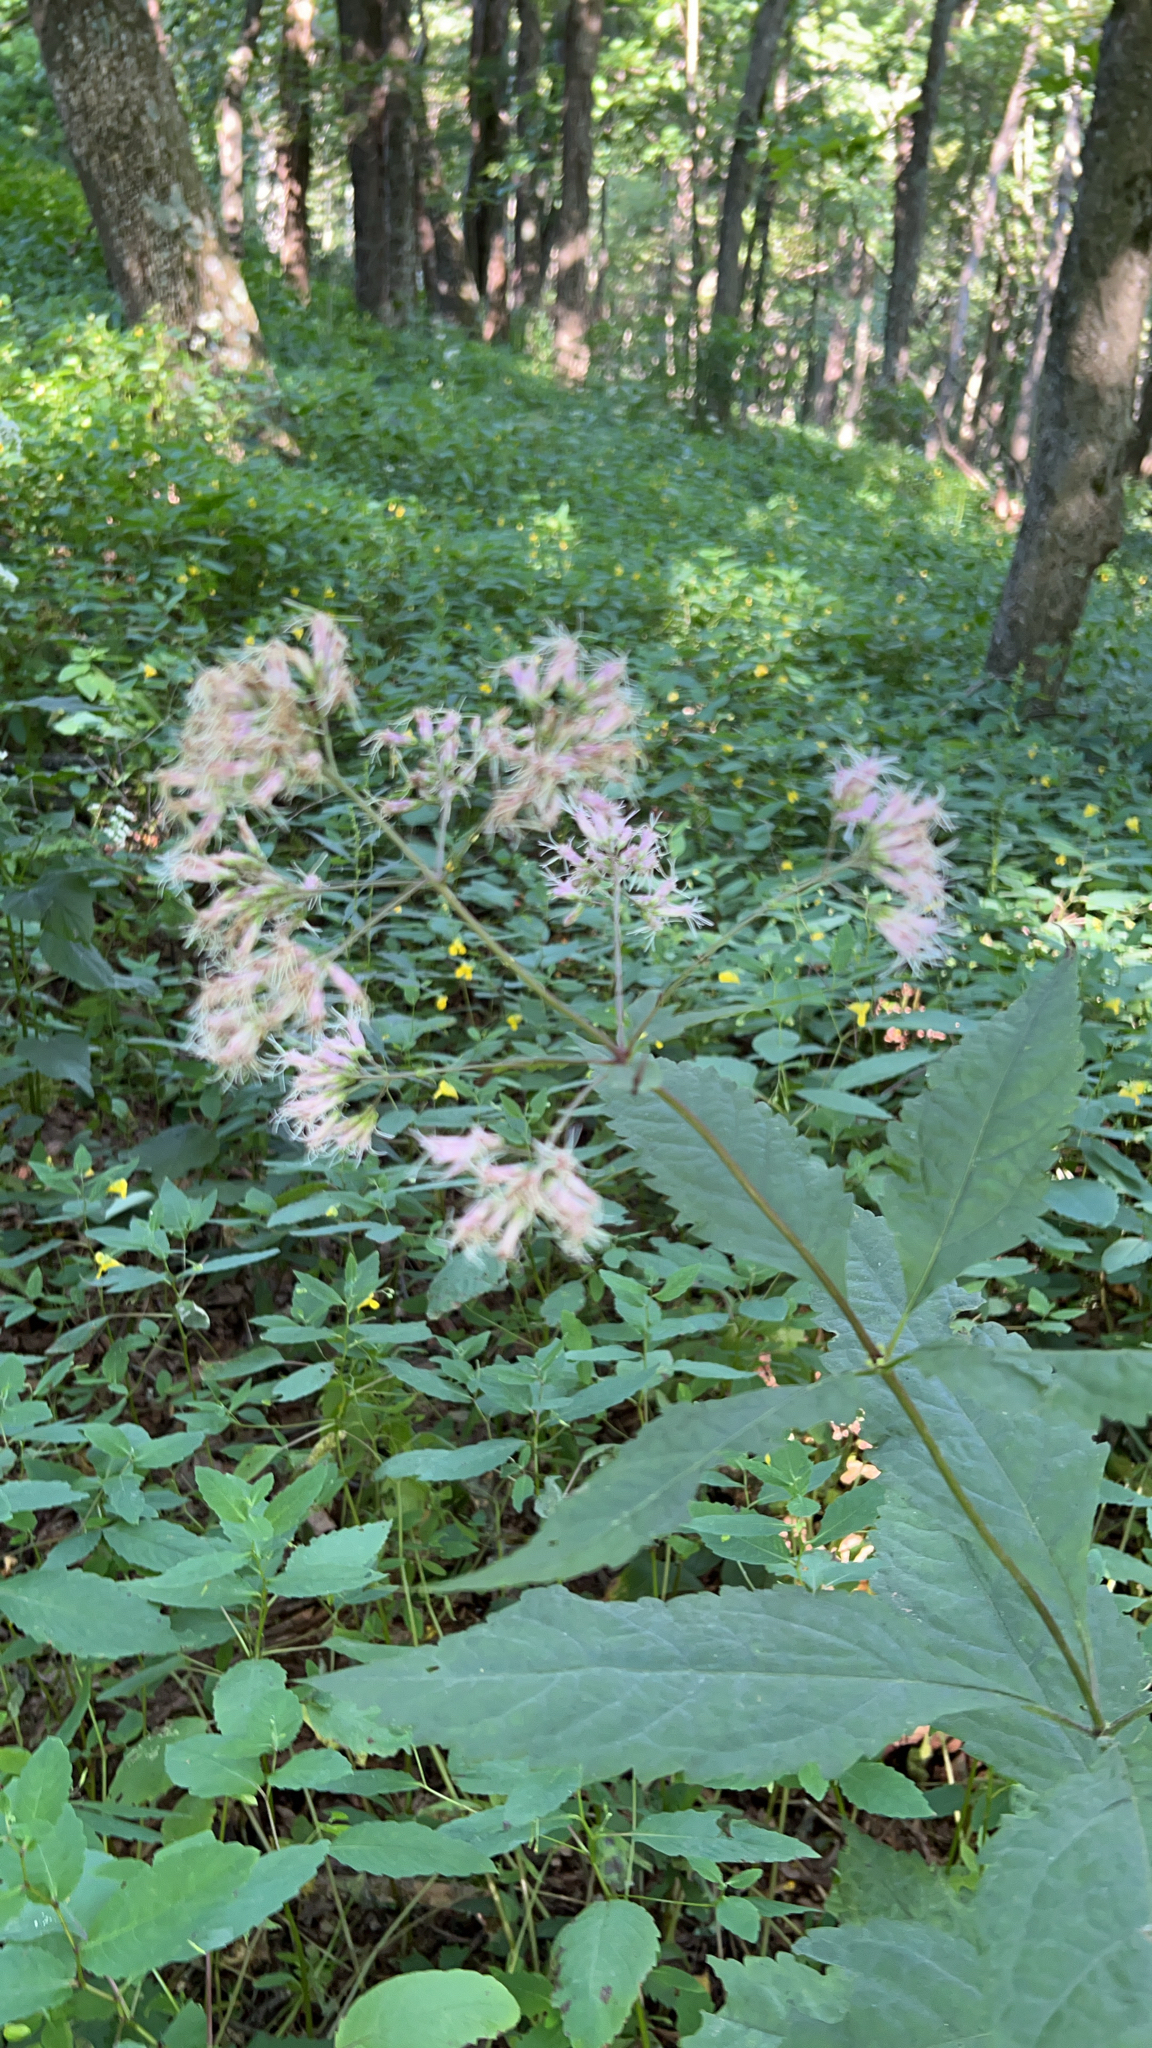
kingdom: Plantae
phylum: Tracheophyta
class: Magnoliopsida
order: Asterales
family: Asteraceae
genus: Eutrochium
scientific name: Eutrochium purpureum
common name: Gravelroot
